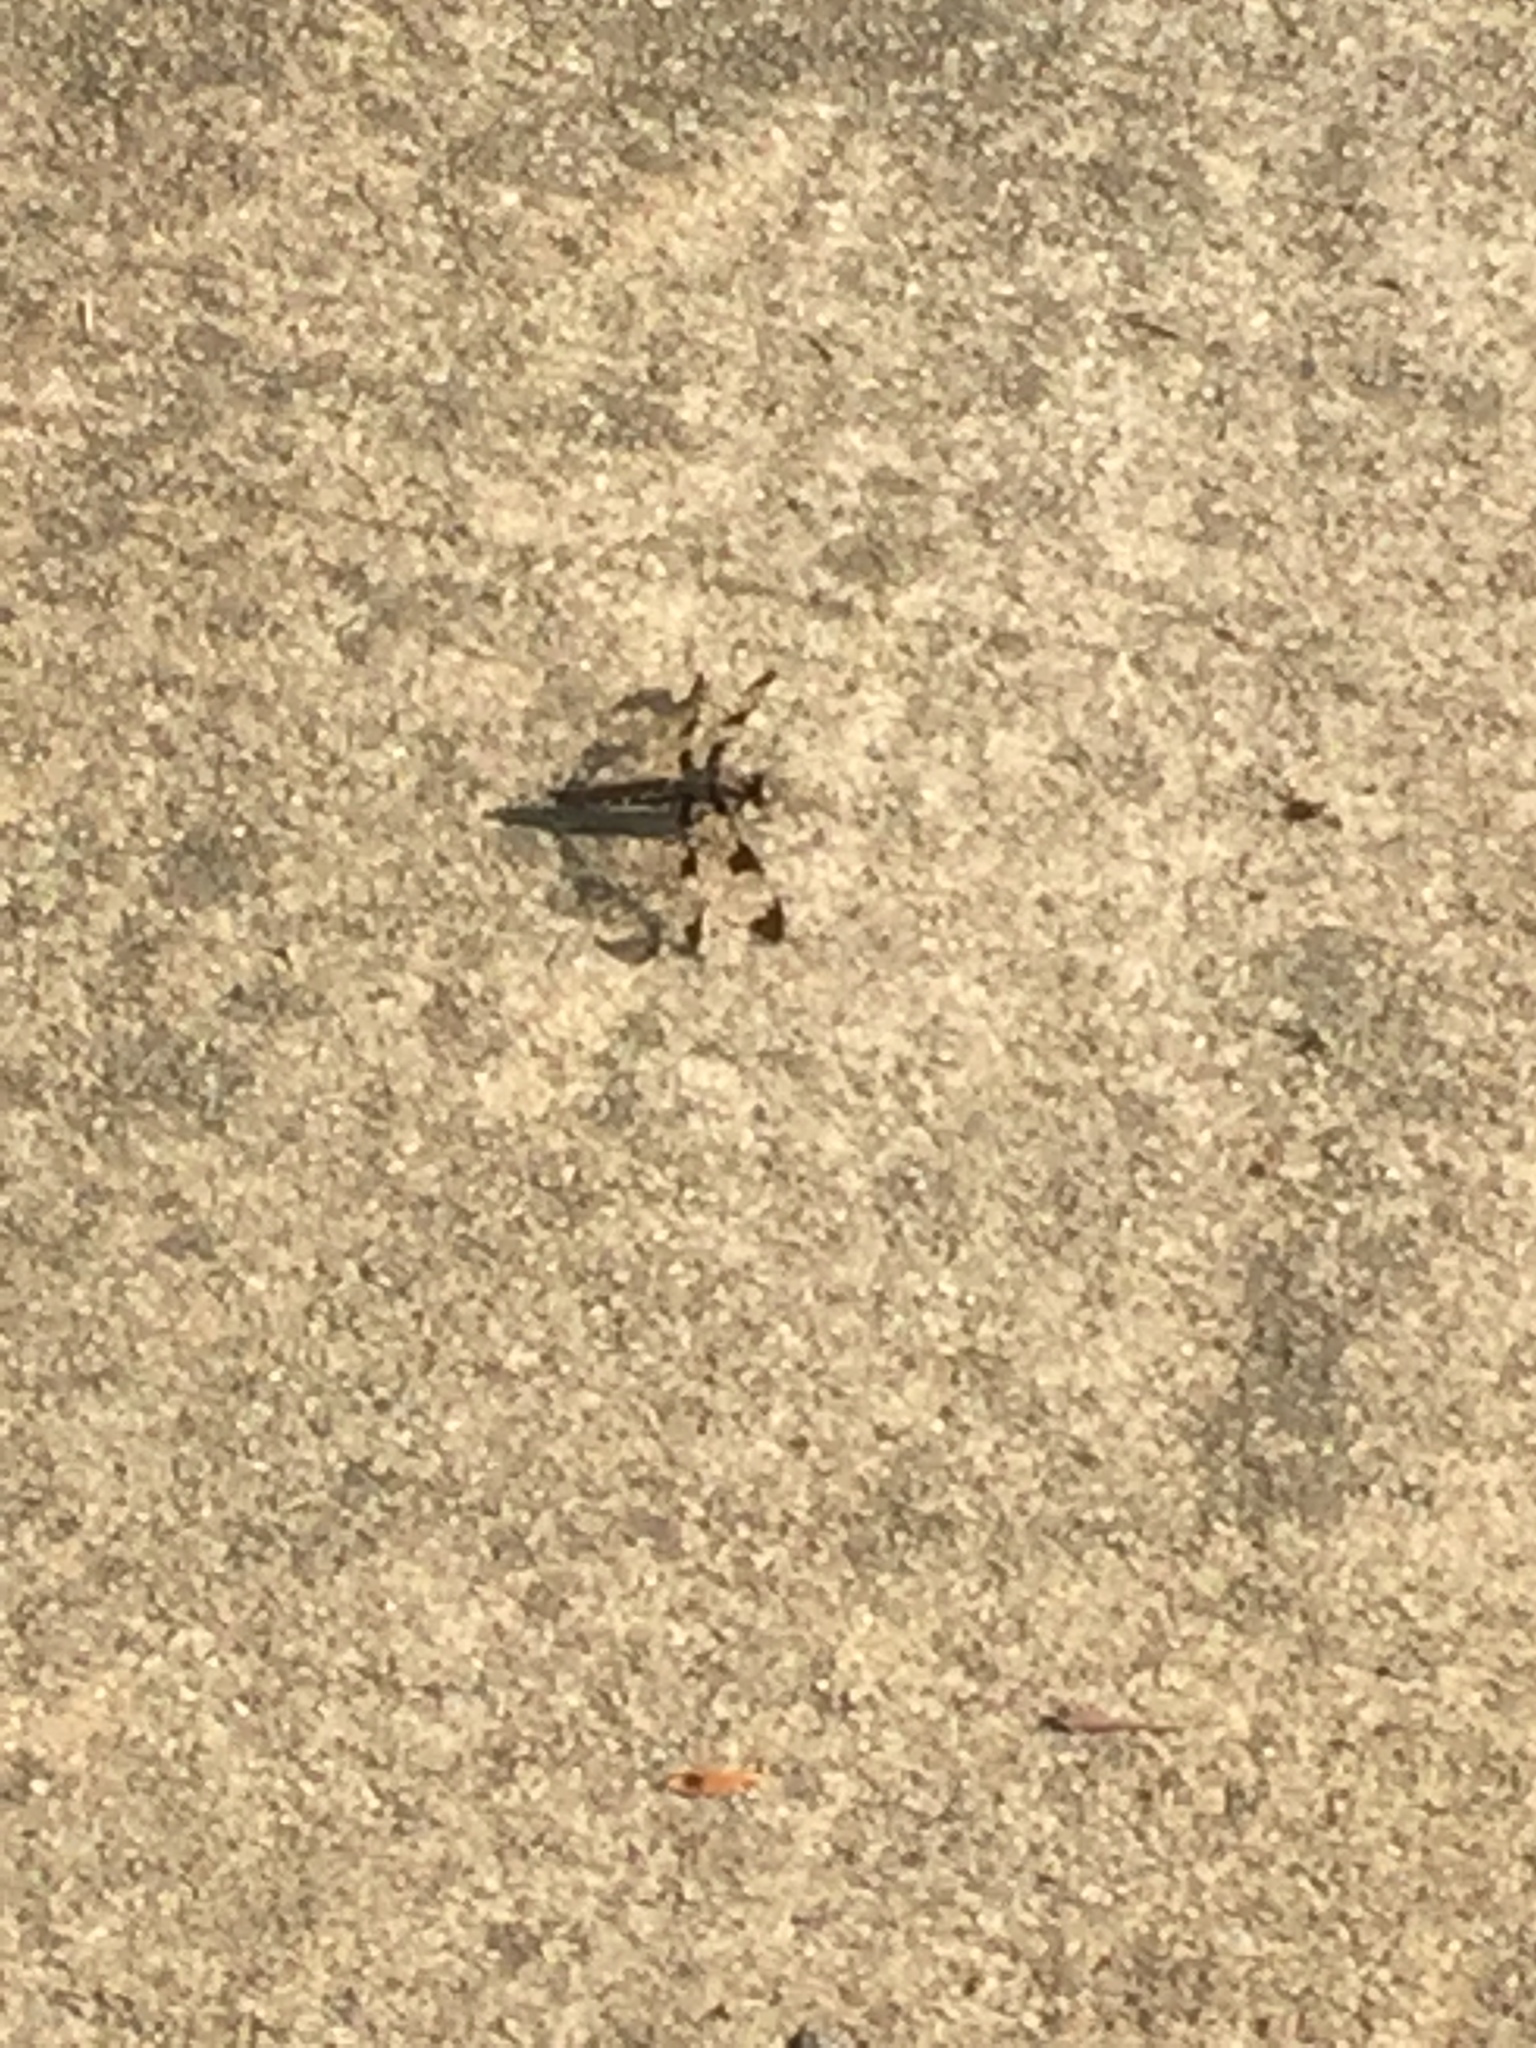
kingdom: Animalia
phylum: Arthropoda
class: Insecta
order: Odonata
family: Libellulidae
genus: Plathemis
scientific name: Plathemis lydia
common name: Common whitetail
